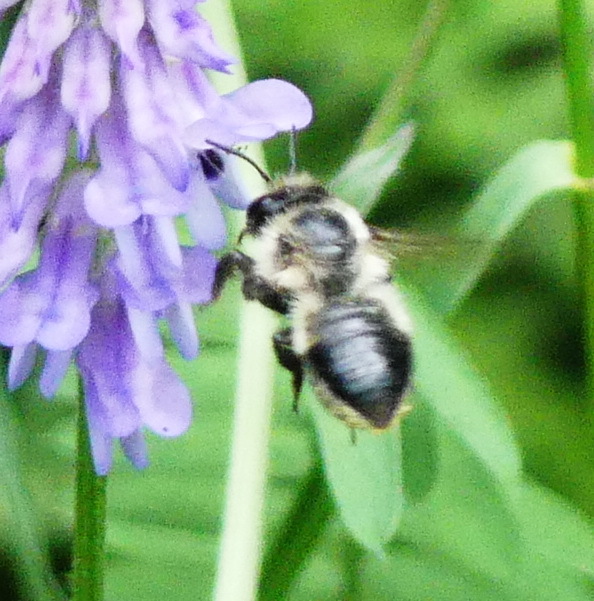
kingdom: Animalia
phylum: Arthropoda
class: Insecta
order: Hymenoptera
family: Megachilidae
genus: Megachile
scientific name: Megachile melanophaea
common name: Black-and-gray leafcutter bee
